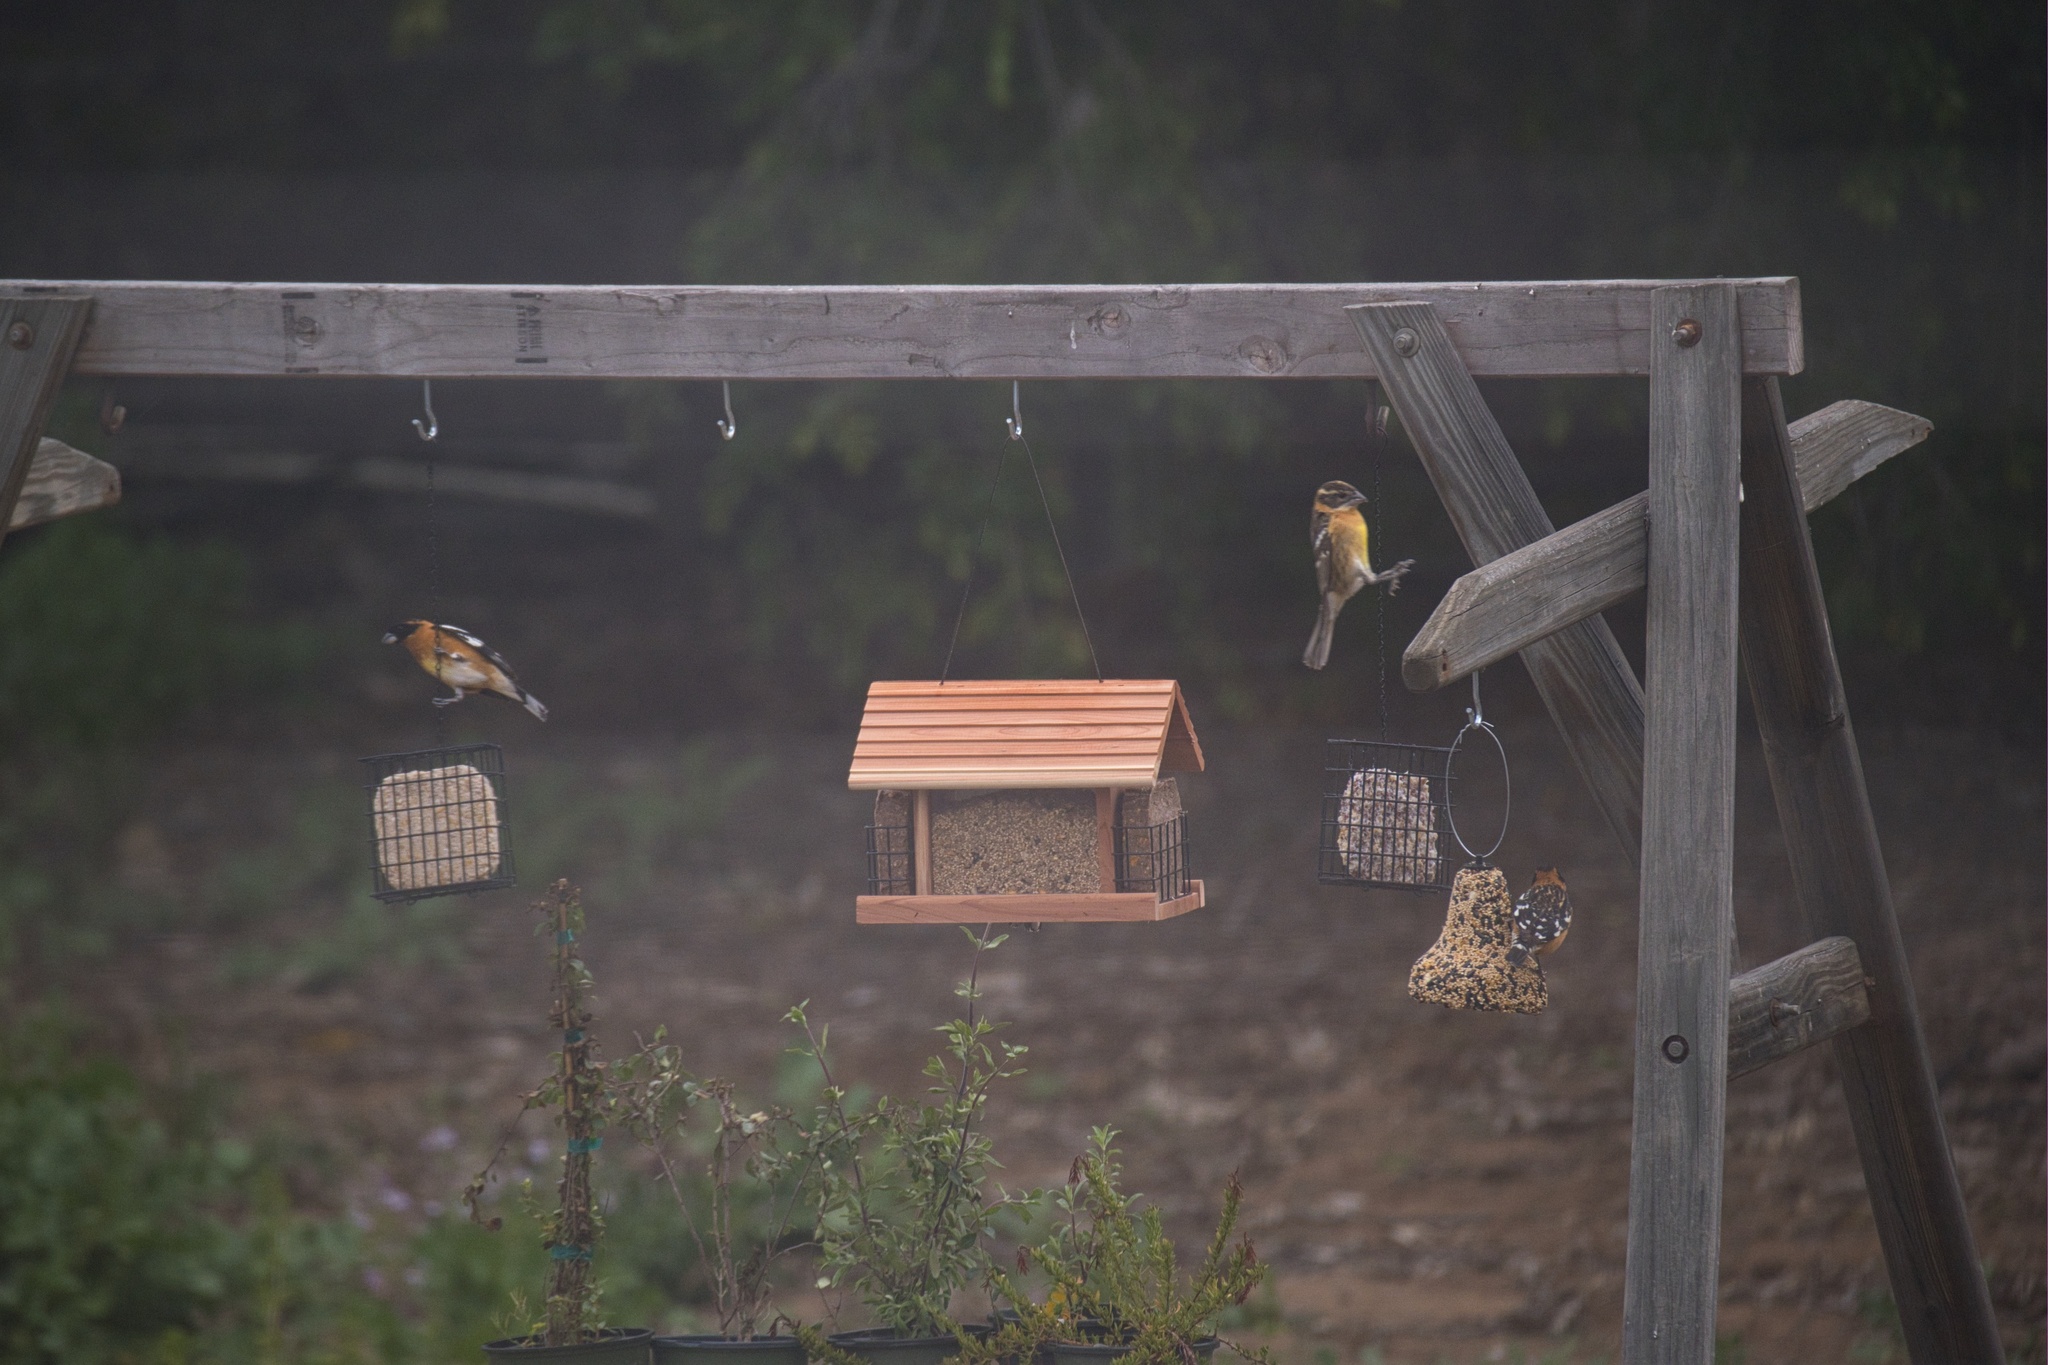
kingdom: Animalia
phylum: Chordata
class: Aves
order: Passeriformes
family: Cardinalidae
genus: Pheucticus
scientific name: Pheucticus melanocephalus
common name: Black-headed grosbeak
